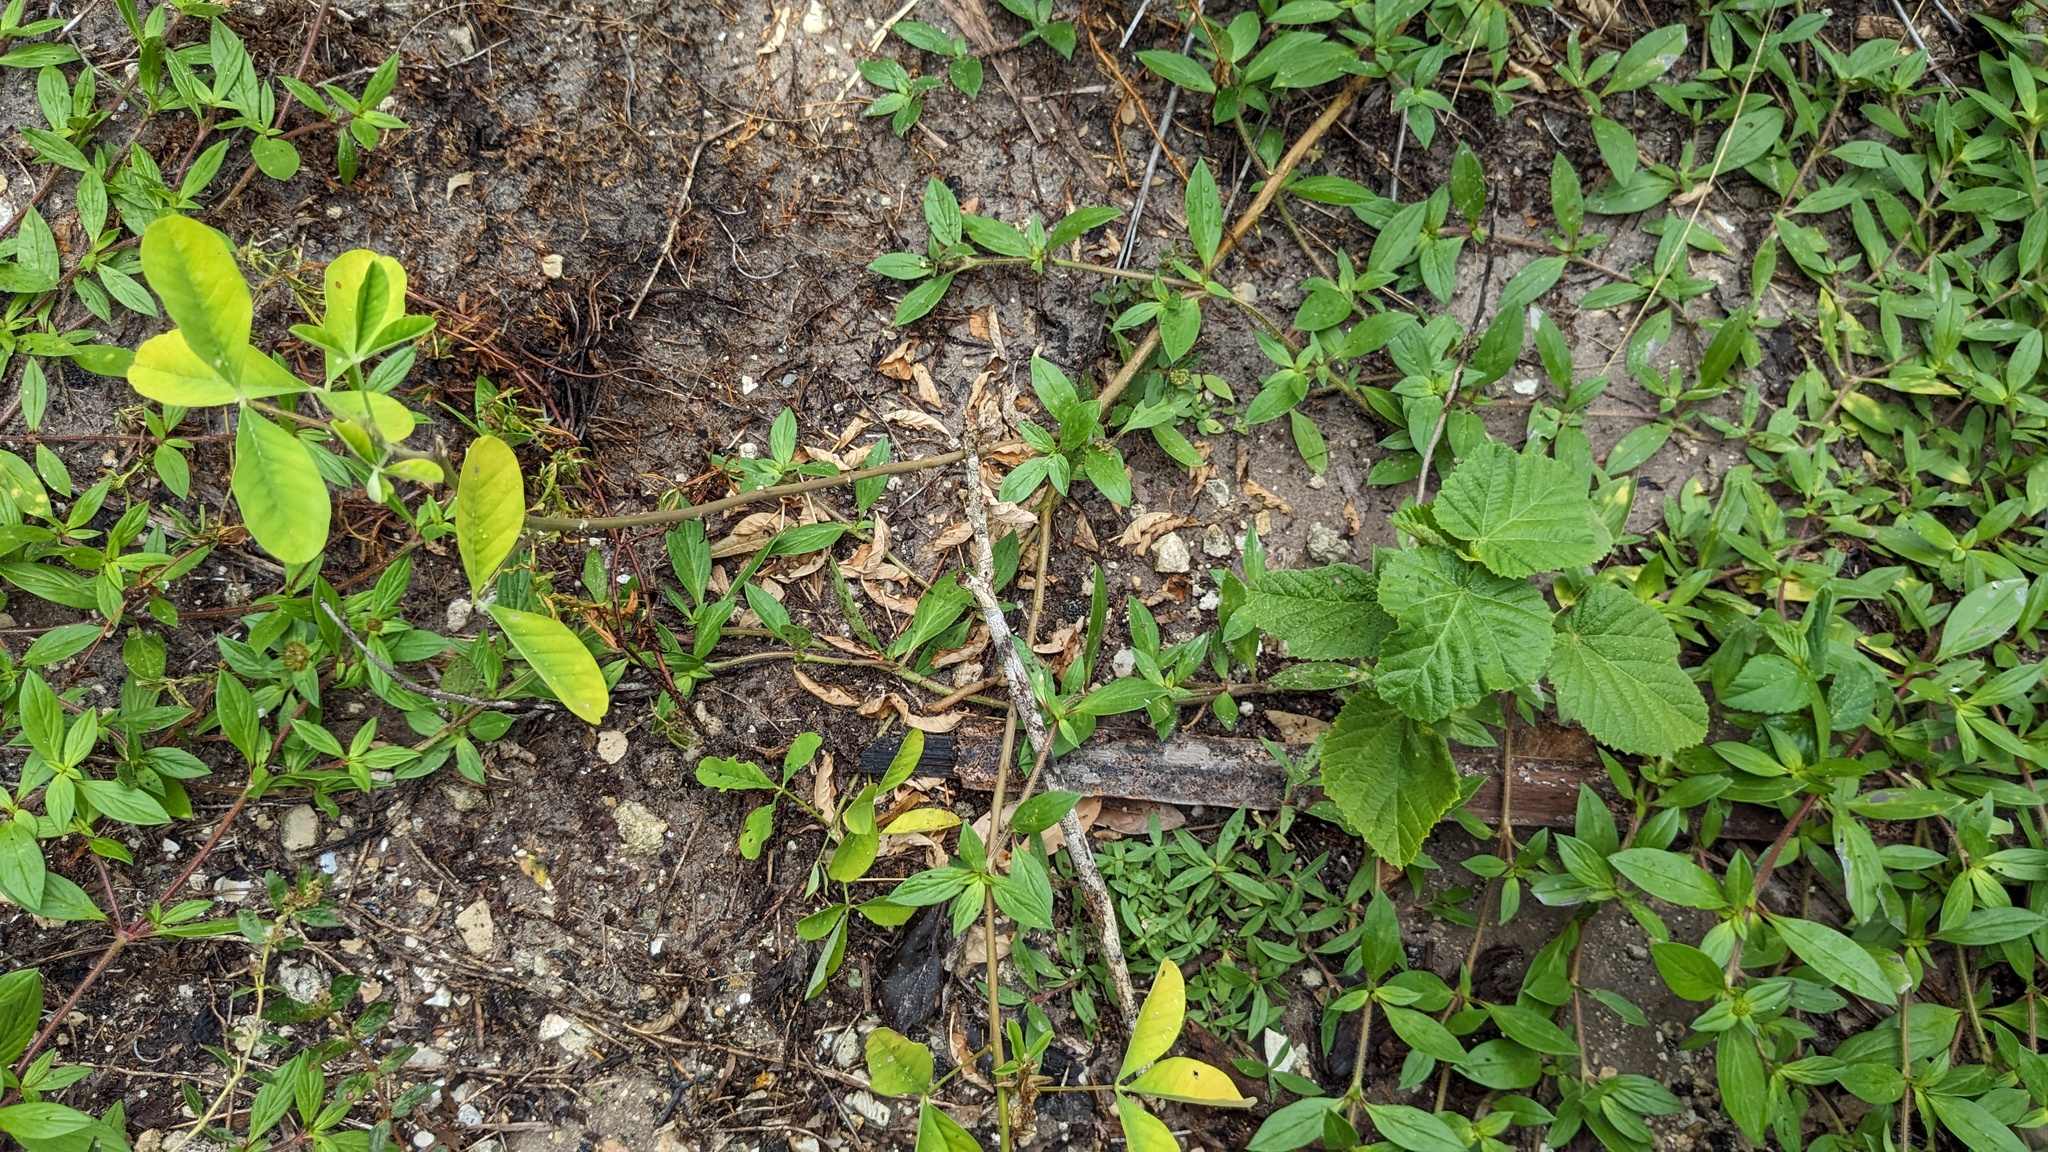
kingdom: Plantae
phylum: Tracheophyta
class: Magnoliopsida
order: Fabales
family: Fabaceae
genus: Crotalaria
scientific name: Crotalaria pallida
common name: Smooth rattlebox
